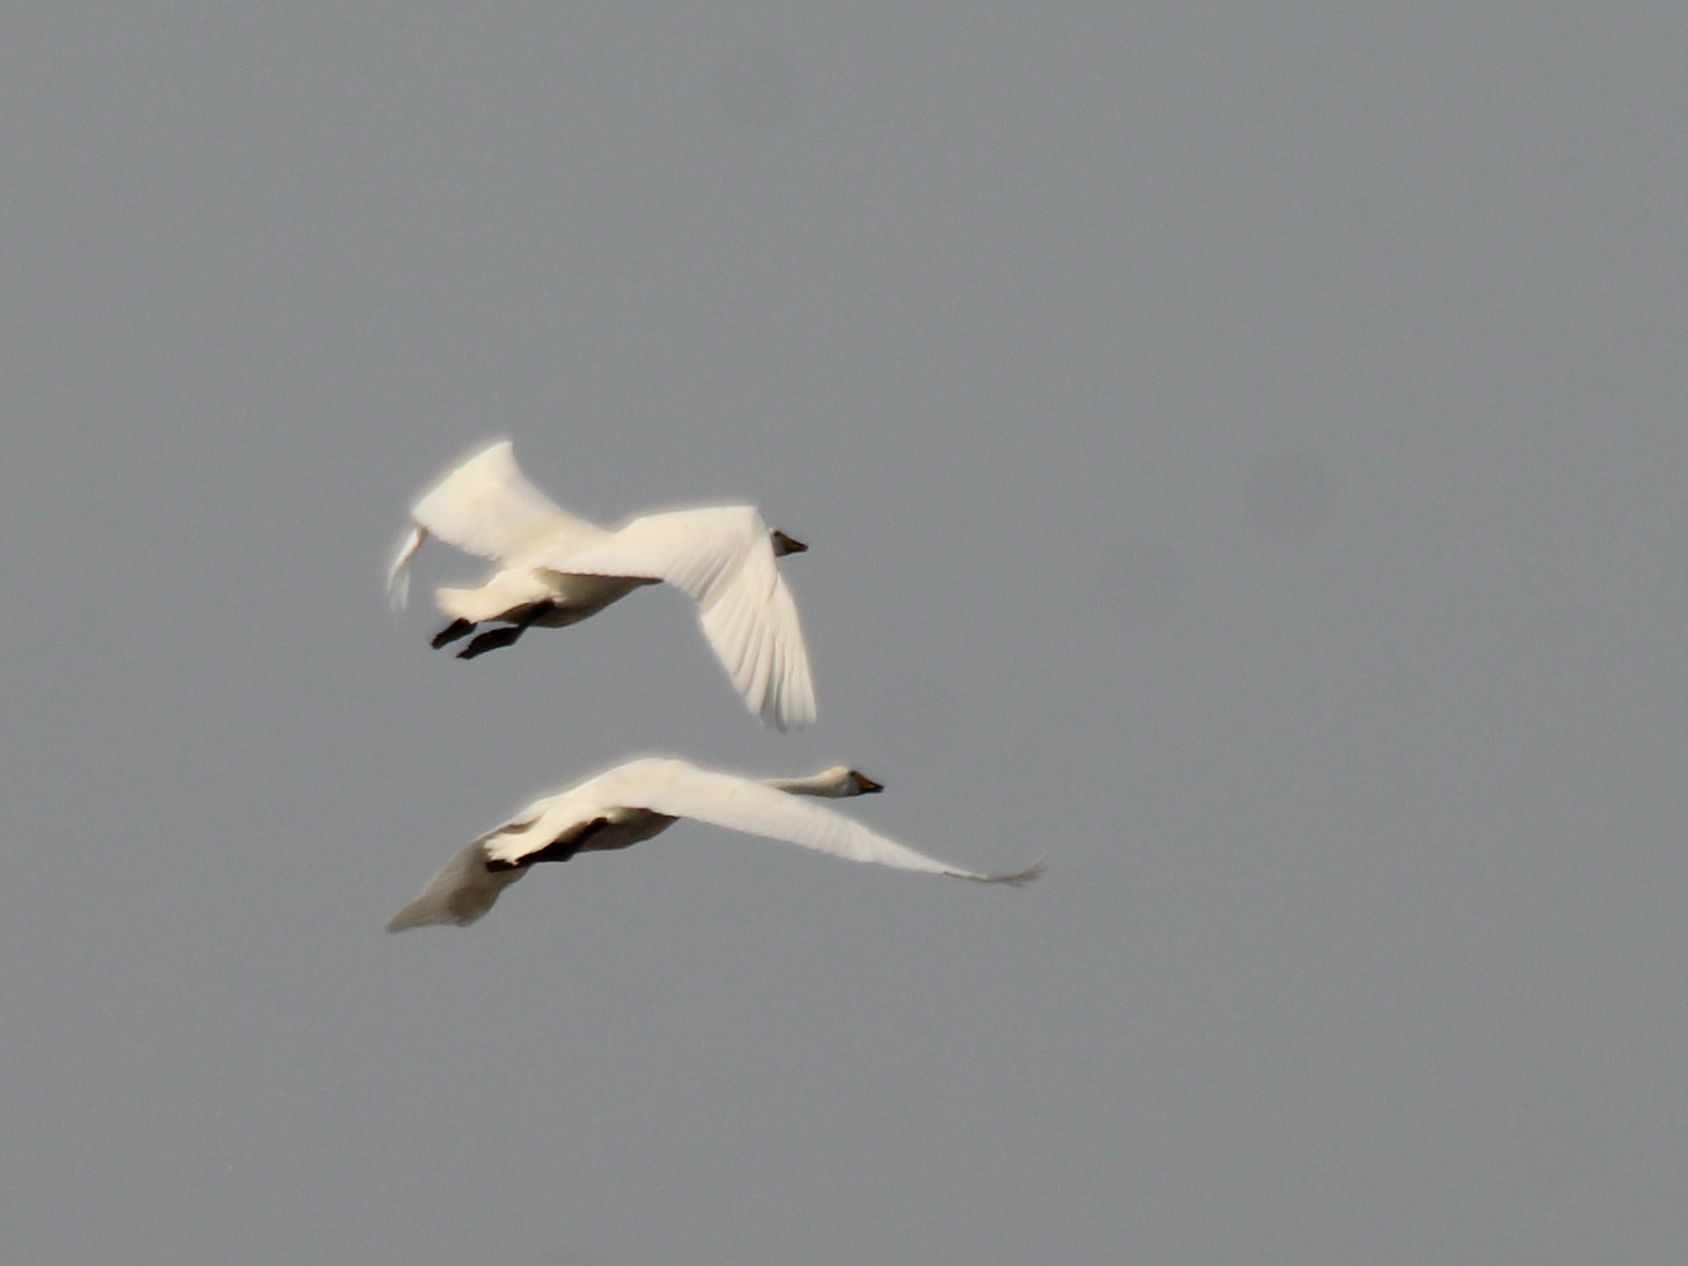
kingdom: Animalia
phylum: Chordata
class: Aves
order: Anseriformes
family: Anatidae
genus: Cygnus
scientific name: Cygnus cygnus
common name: Whooper swan
